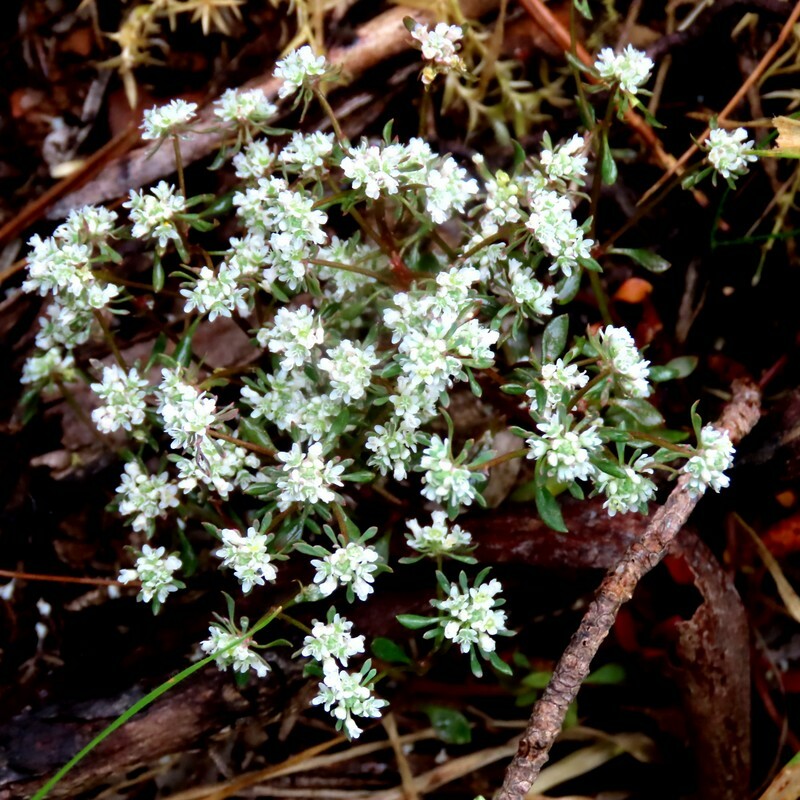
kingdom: Plantae
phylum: Tracheophyta
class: Magnoliopsida
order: Malpighiales
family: Phyllanthaceae
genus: Poranthera
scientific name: Poranthera microphylla
